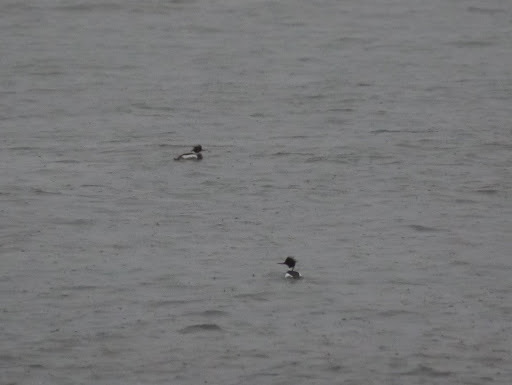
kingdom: Animalia
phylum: Chordata
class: Aves
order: Anseriformes
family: Anatidae
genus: Mergus
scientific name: Mergus serrator
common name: Red-breasted merganser
